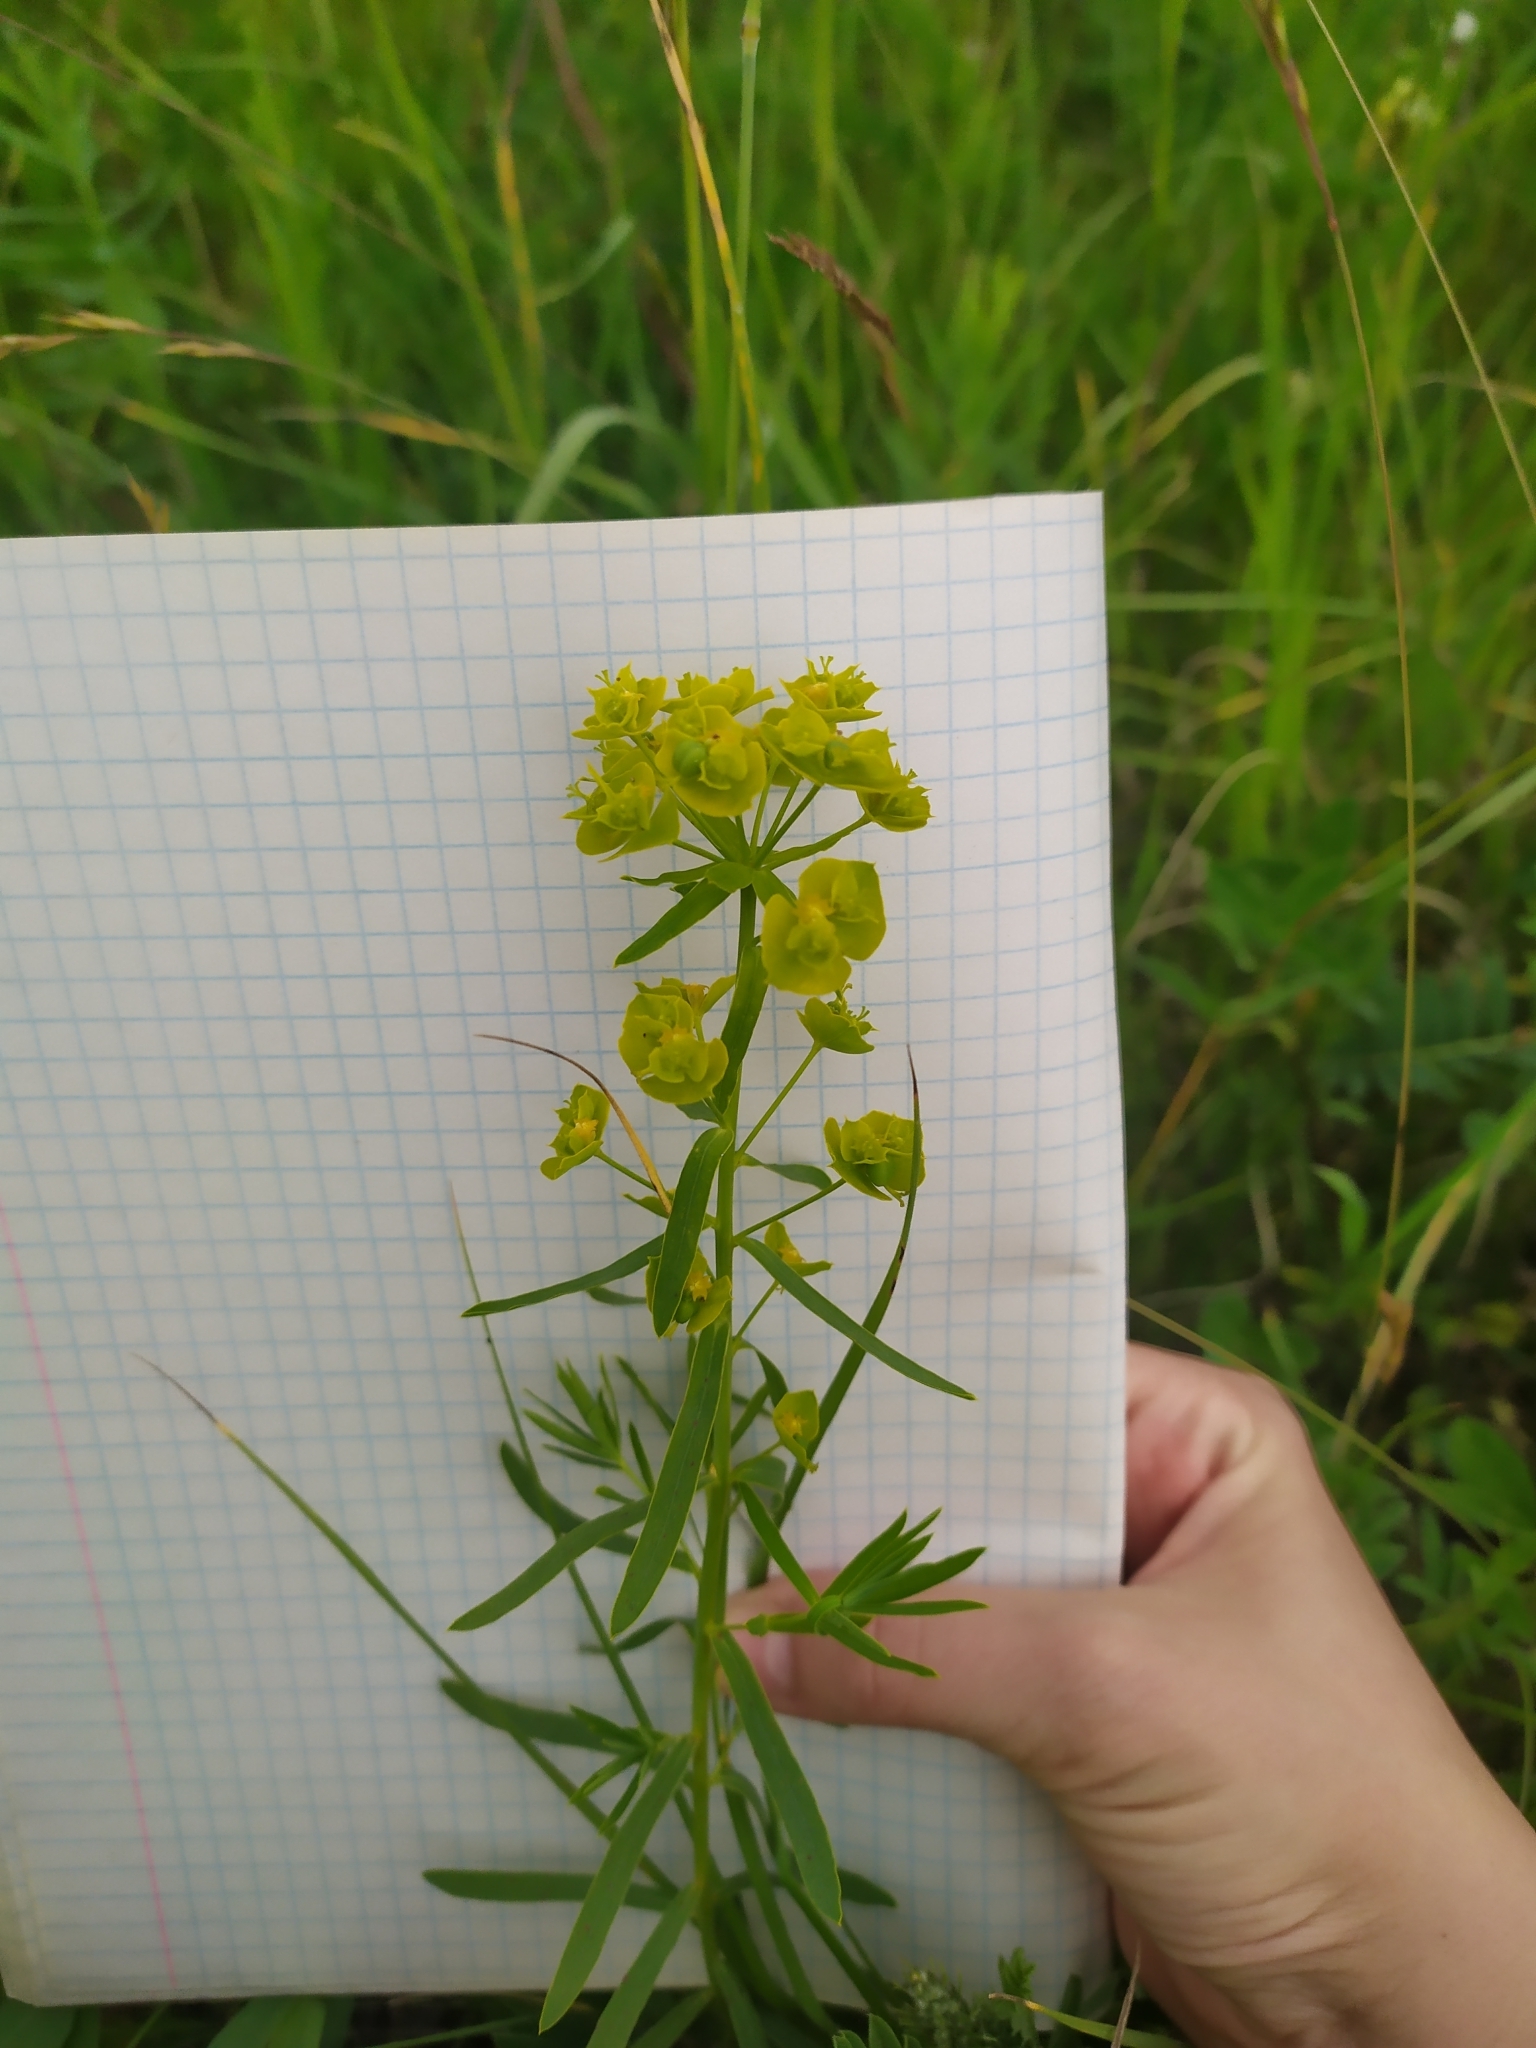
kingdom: Plantae
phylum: Tracheophyta
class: Magnoliopsida
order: Malpighiales
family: Euphorbiaceae
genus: Euphorbia
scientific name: Euphorbia virgata
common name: Leafy spurge
